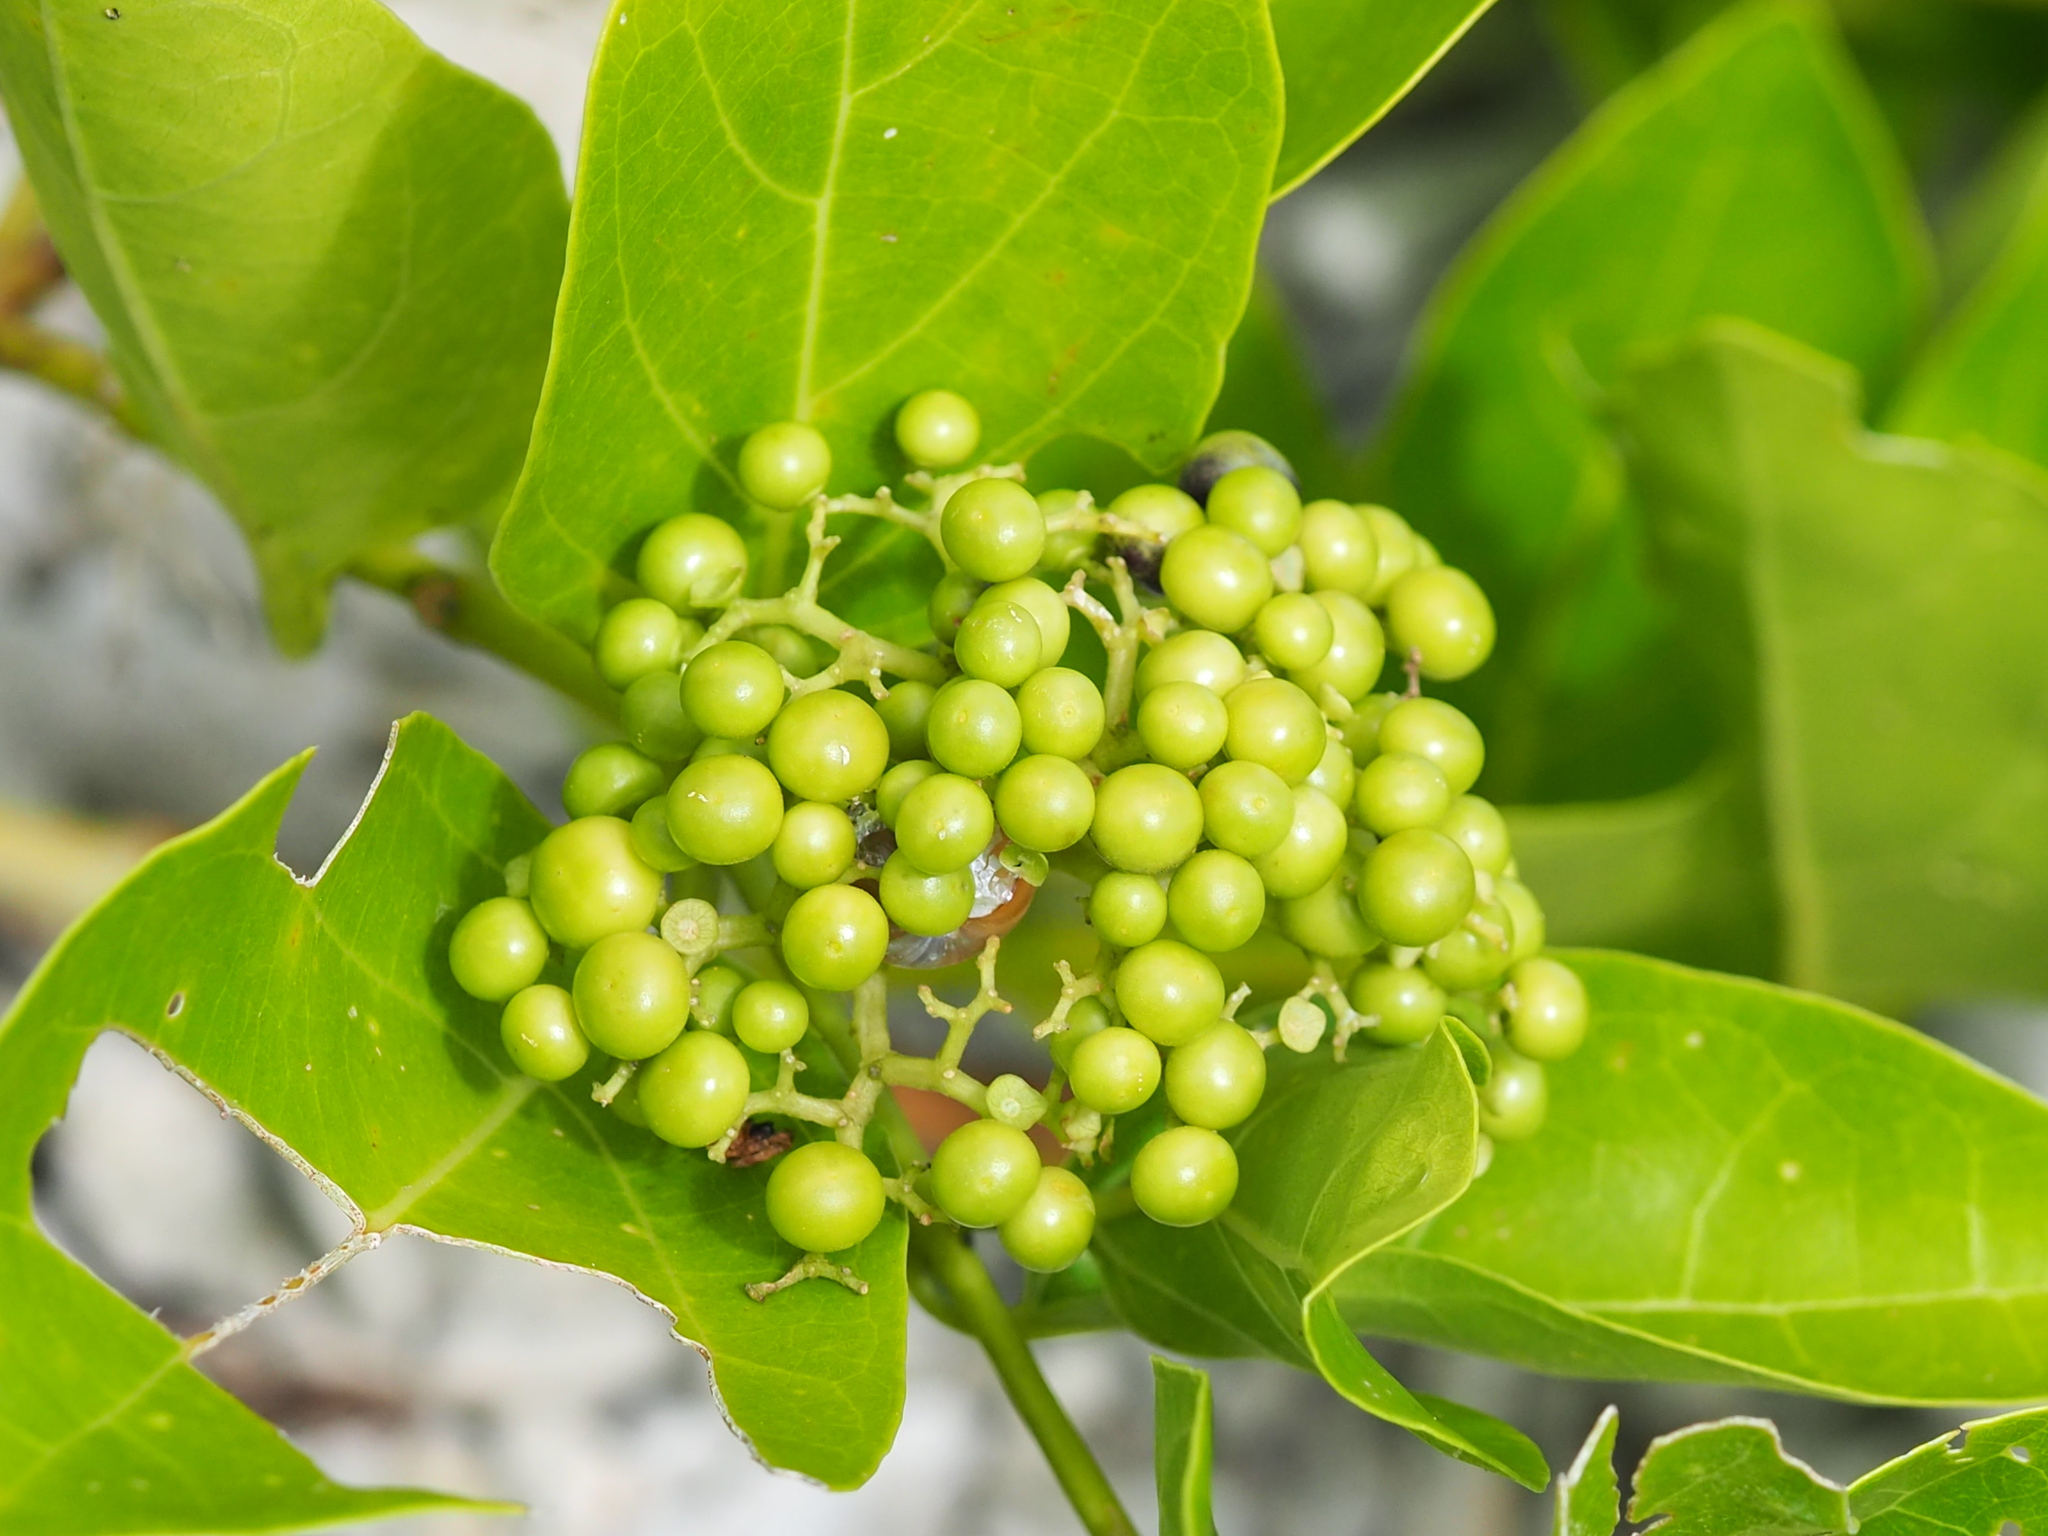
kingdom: Plantae
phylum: Tracheophyta
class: Magnoliopsida
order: Lamiales
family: Lamiaceae
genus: Premna
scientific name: Premna serratifolia
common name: Bastard guelder
